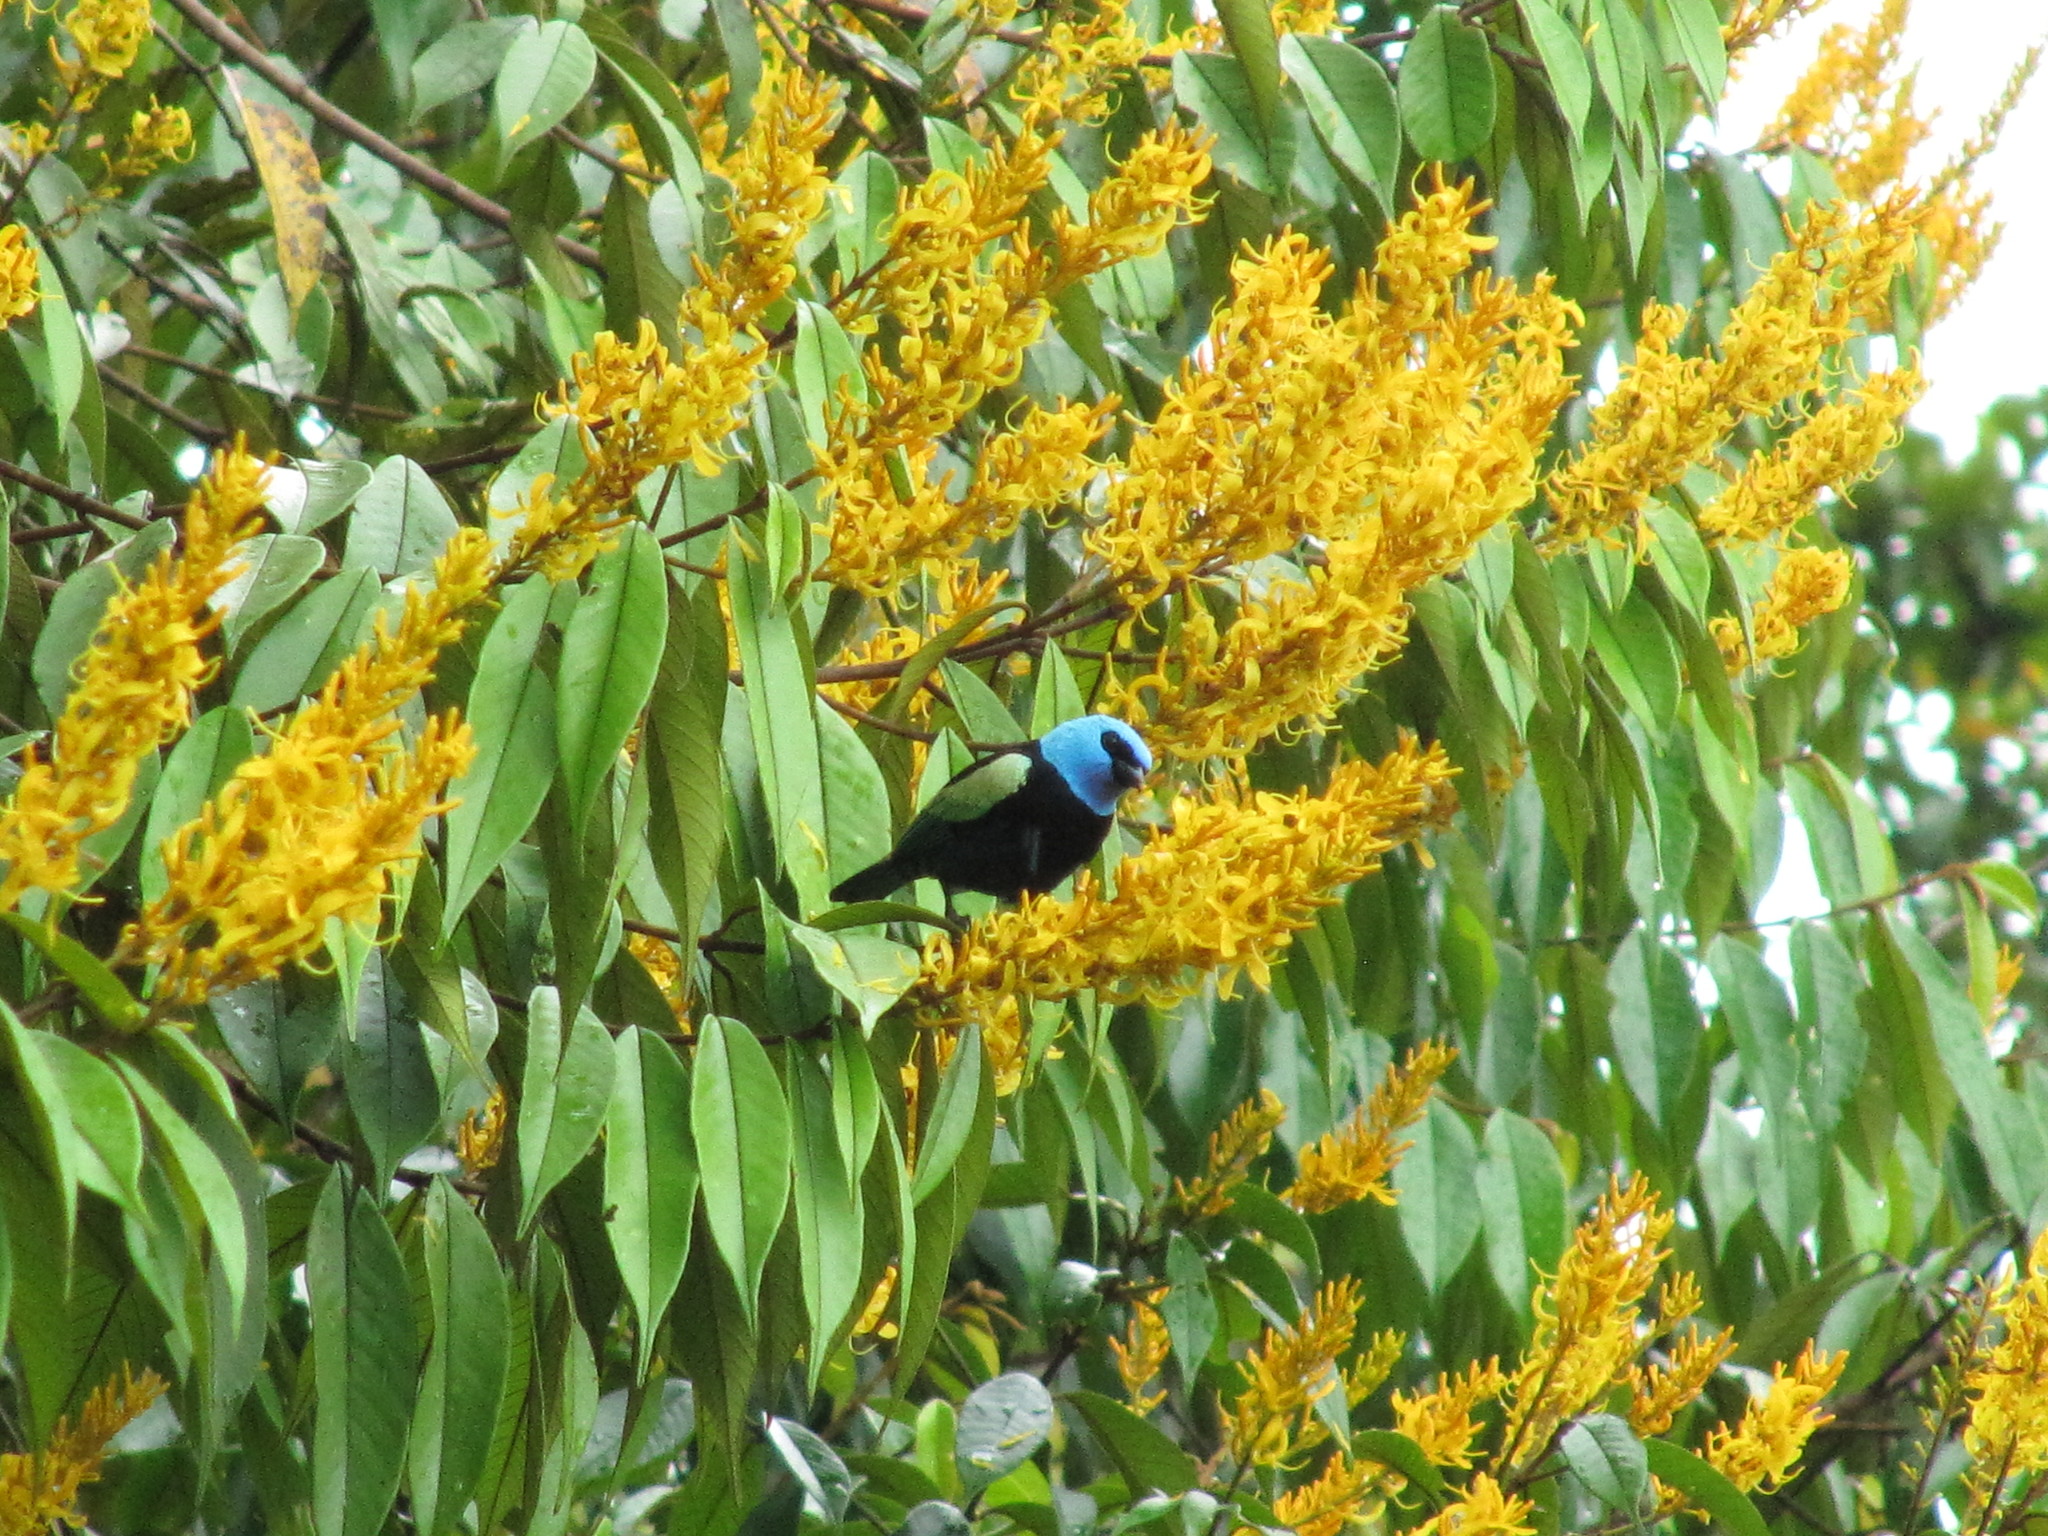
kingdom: Animalia
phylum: Chordata
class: Aves
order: Passeriformes
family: Thraupidae
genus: Stilpnia
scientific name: Stilpnia cyanicollis
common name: Blue-necked tanager
